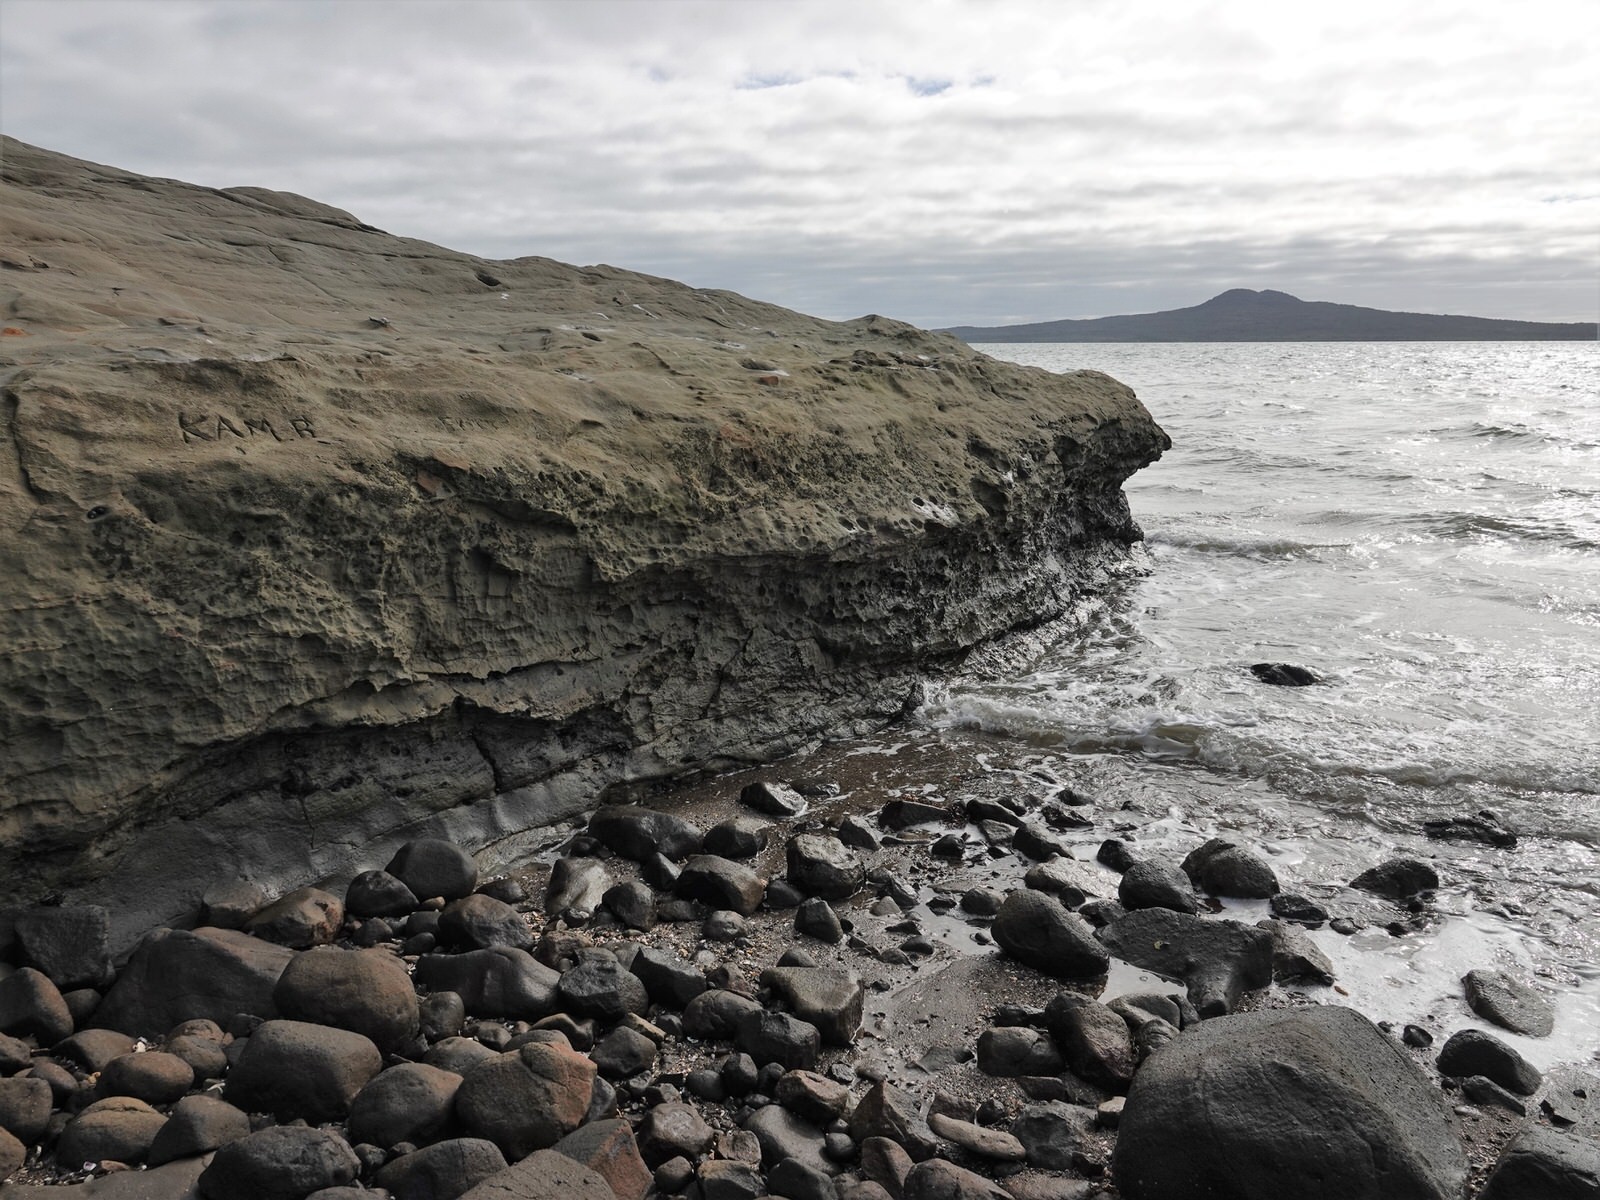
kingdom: Animalia
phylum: Mollusca
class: Gastropoda
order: Cycloneritida
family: Neritidae
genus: Nerita
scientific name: Nerita melanotragus
